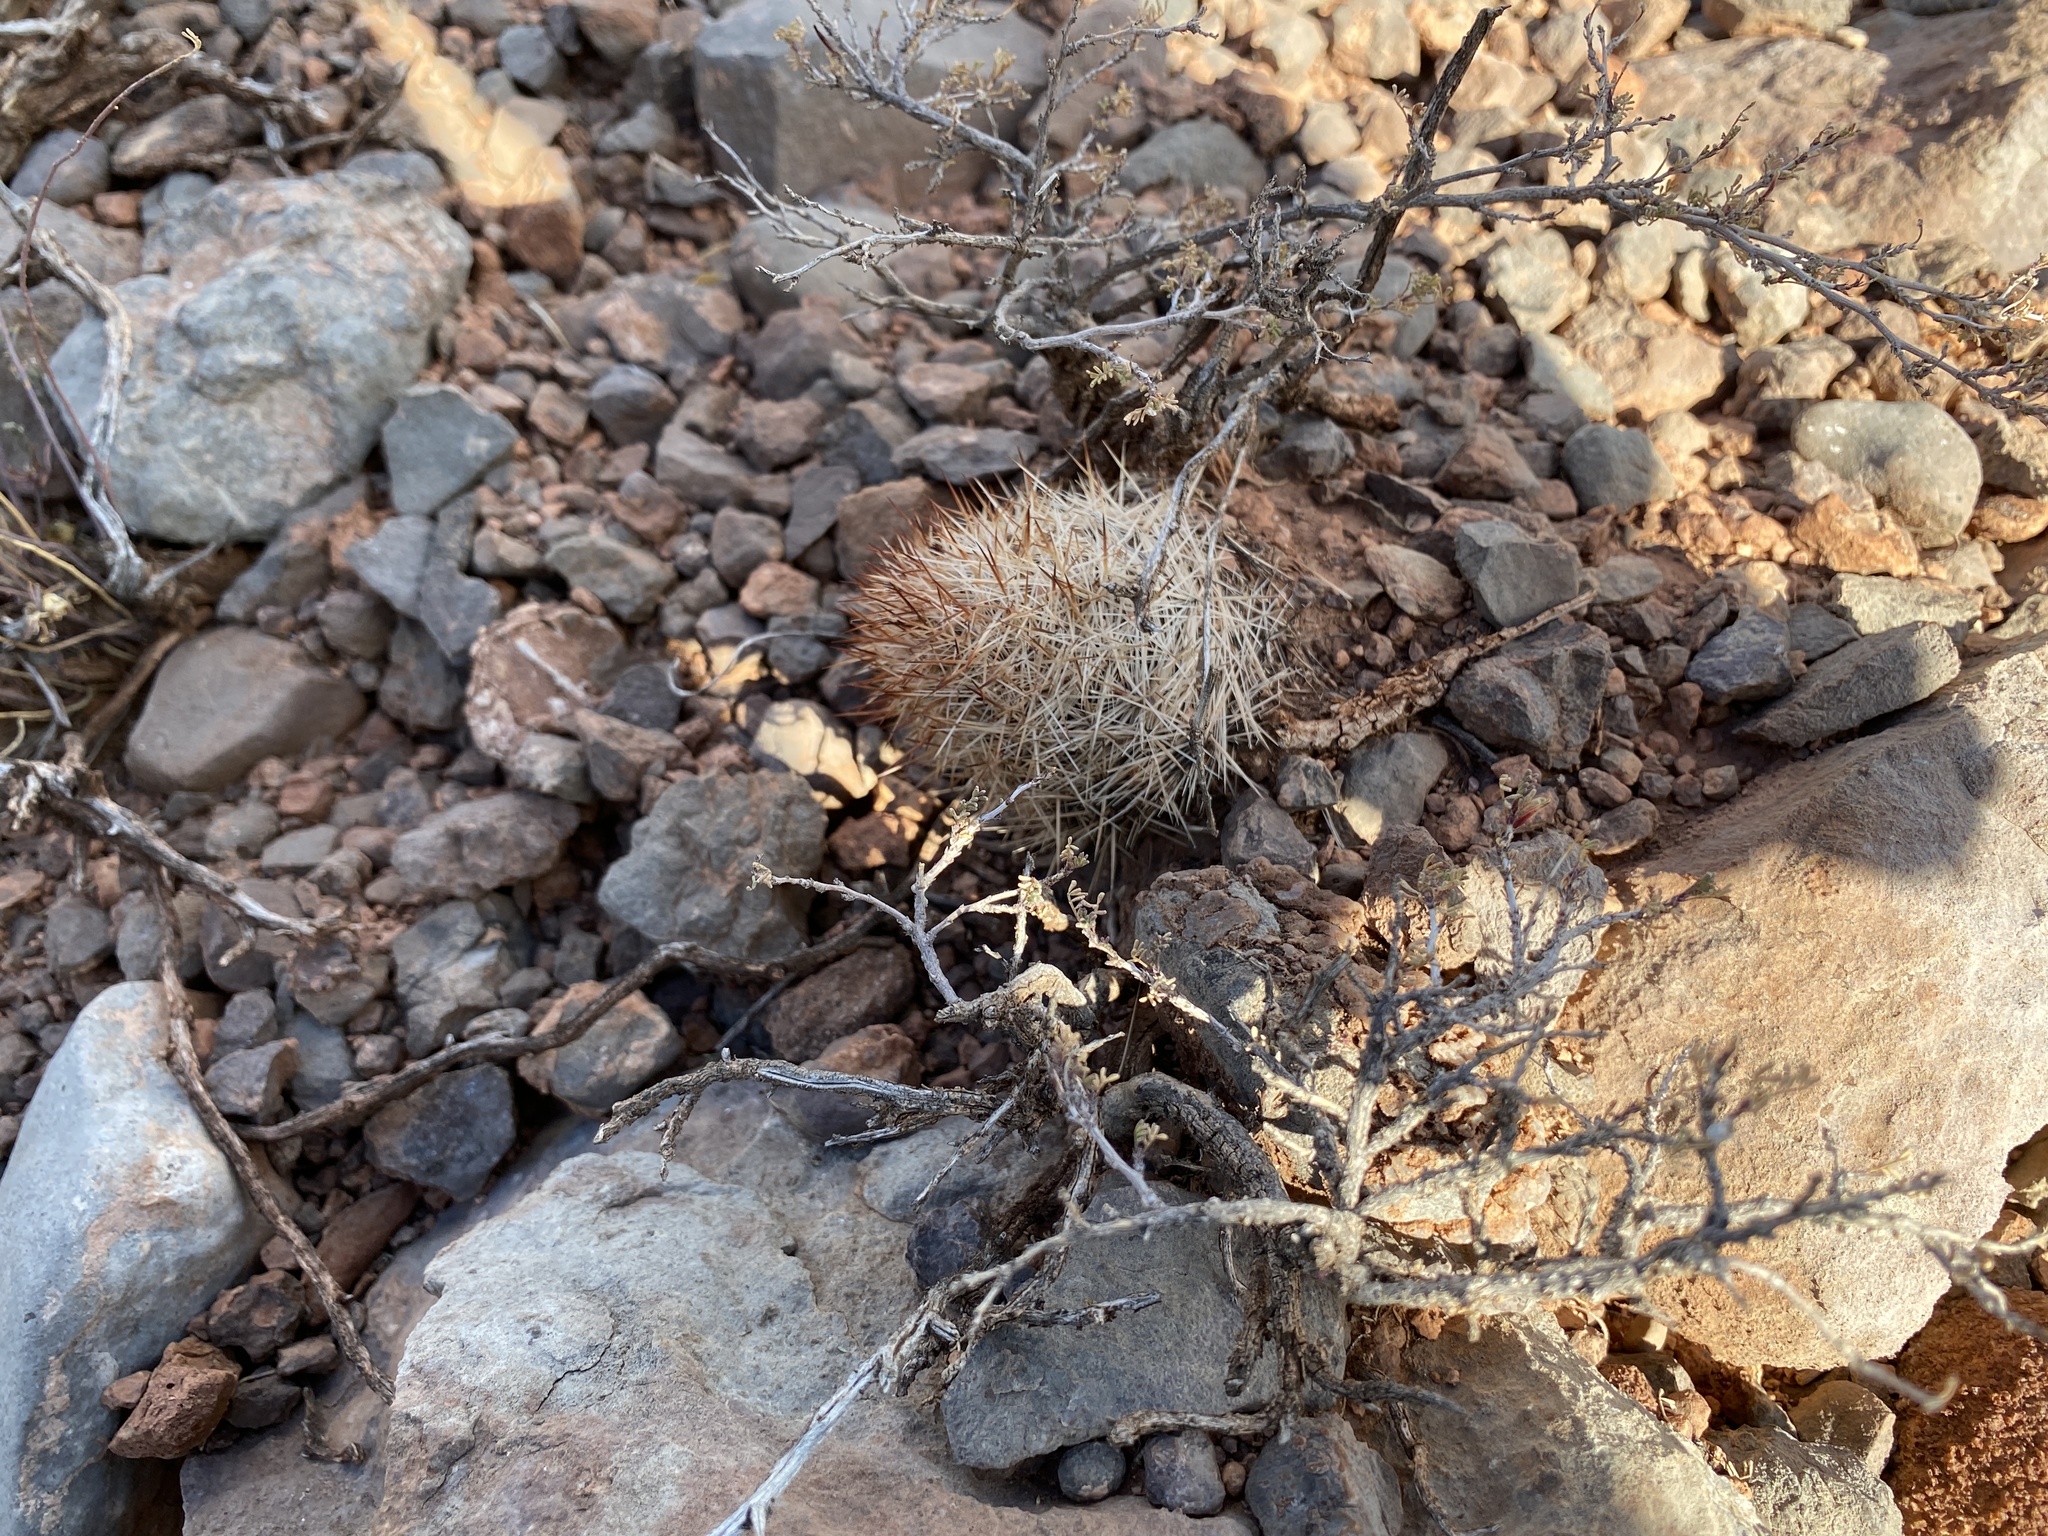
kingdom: Plantae
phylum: Tracheophyta
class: Magnoliopsida
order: Caryophyllales
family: Cactaceae
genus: Pelecyphora
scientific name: Pelecyphora vivipara
